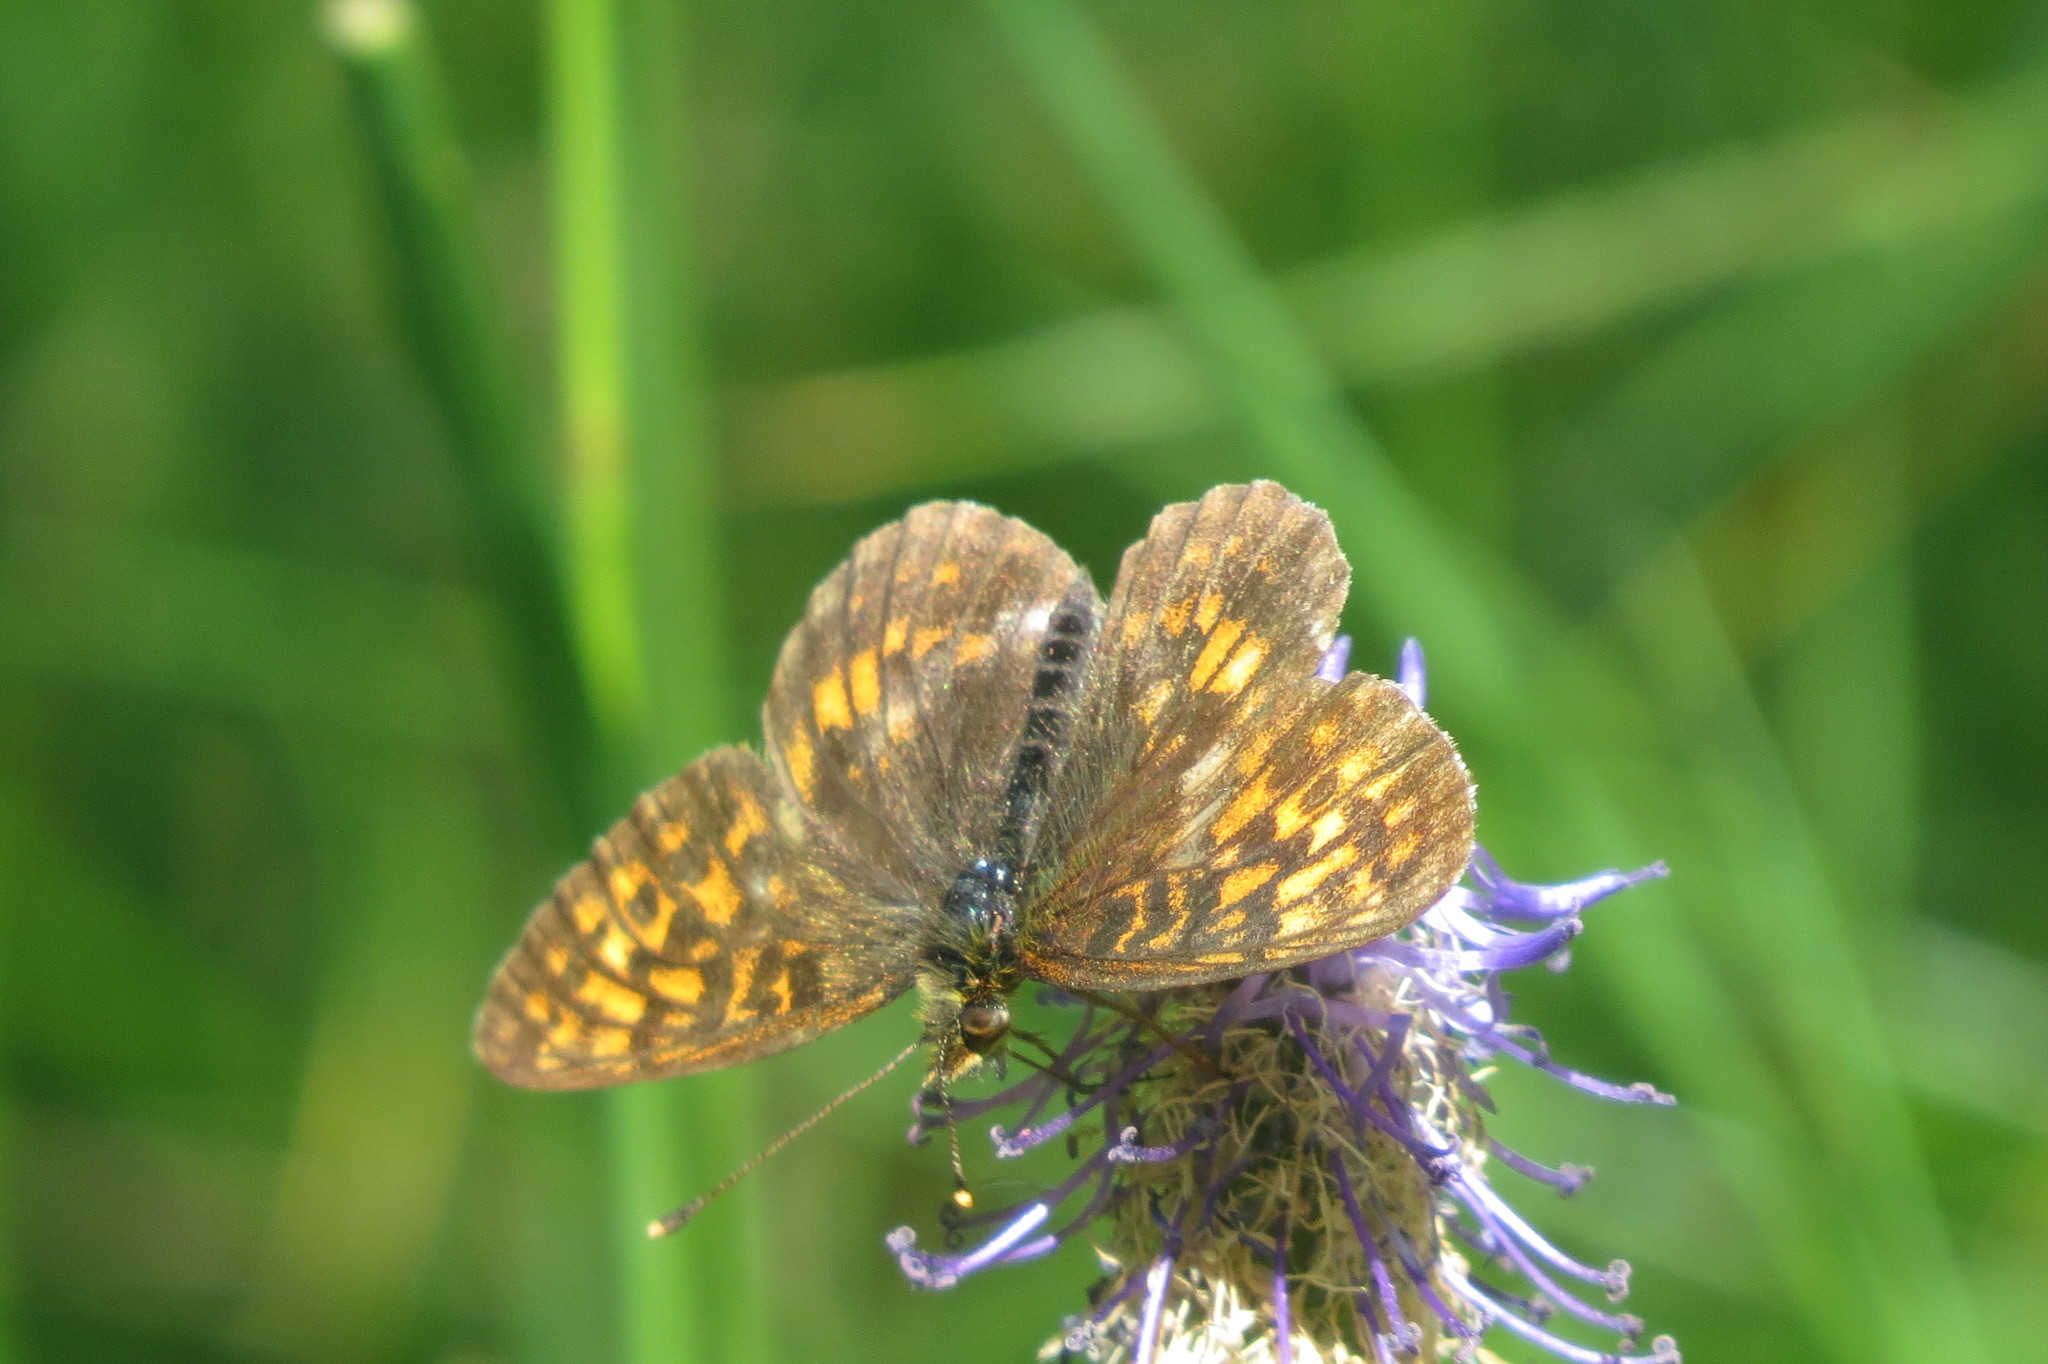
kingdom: Animalia
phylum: Arthropoda
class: Insecta
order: Lepidoptera
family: Nymphalidae
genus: Boloria
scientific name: Boloria thore
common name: Thor's fritillary
